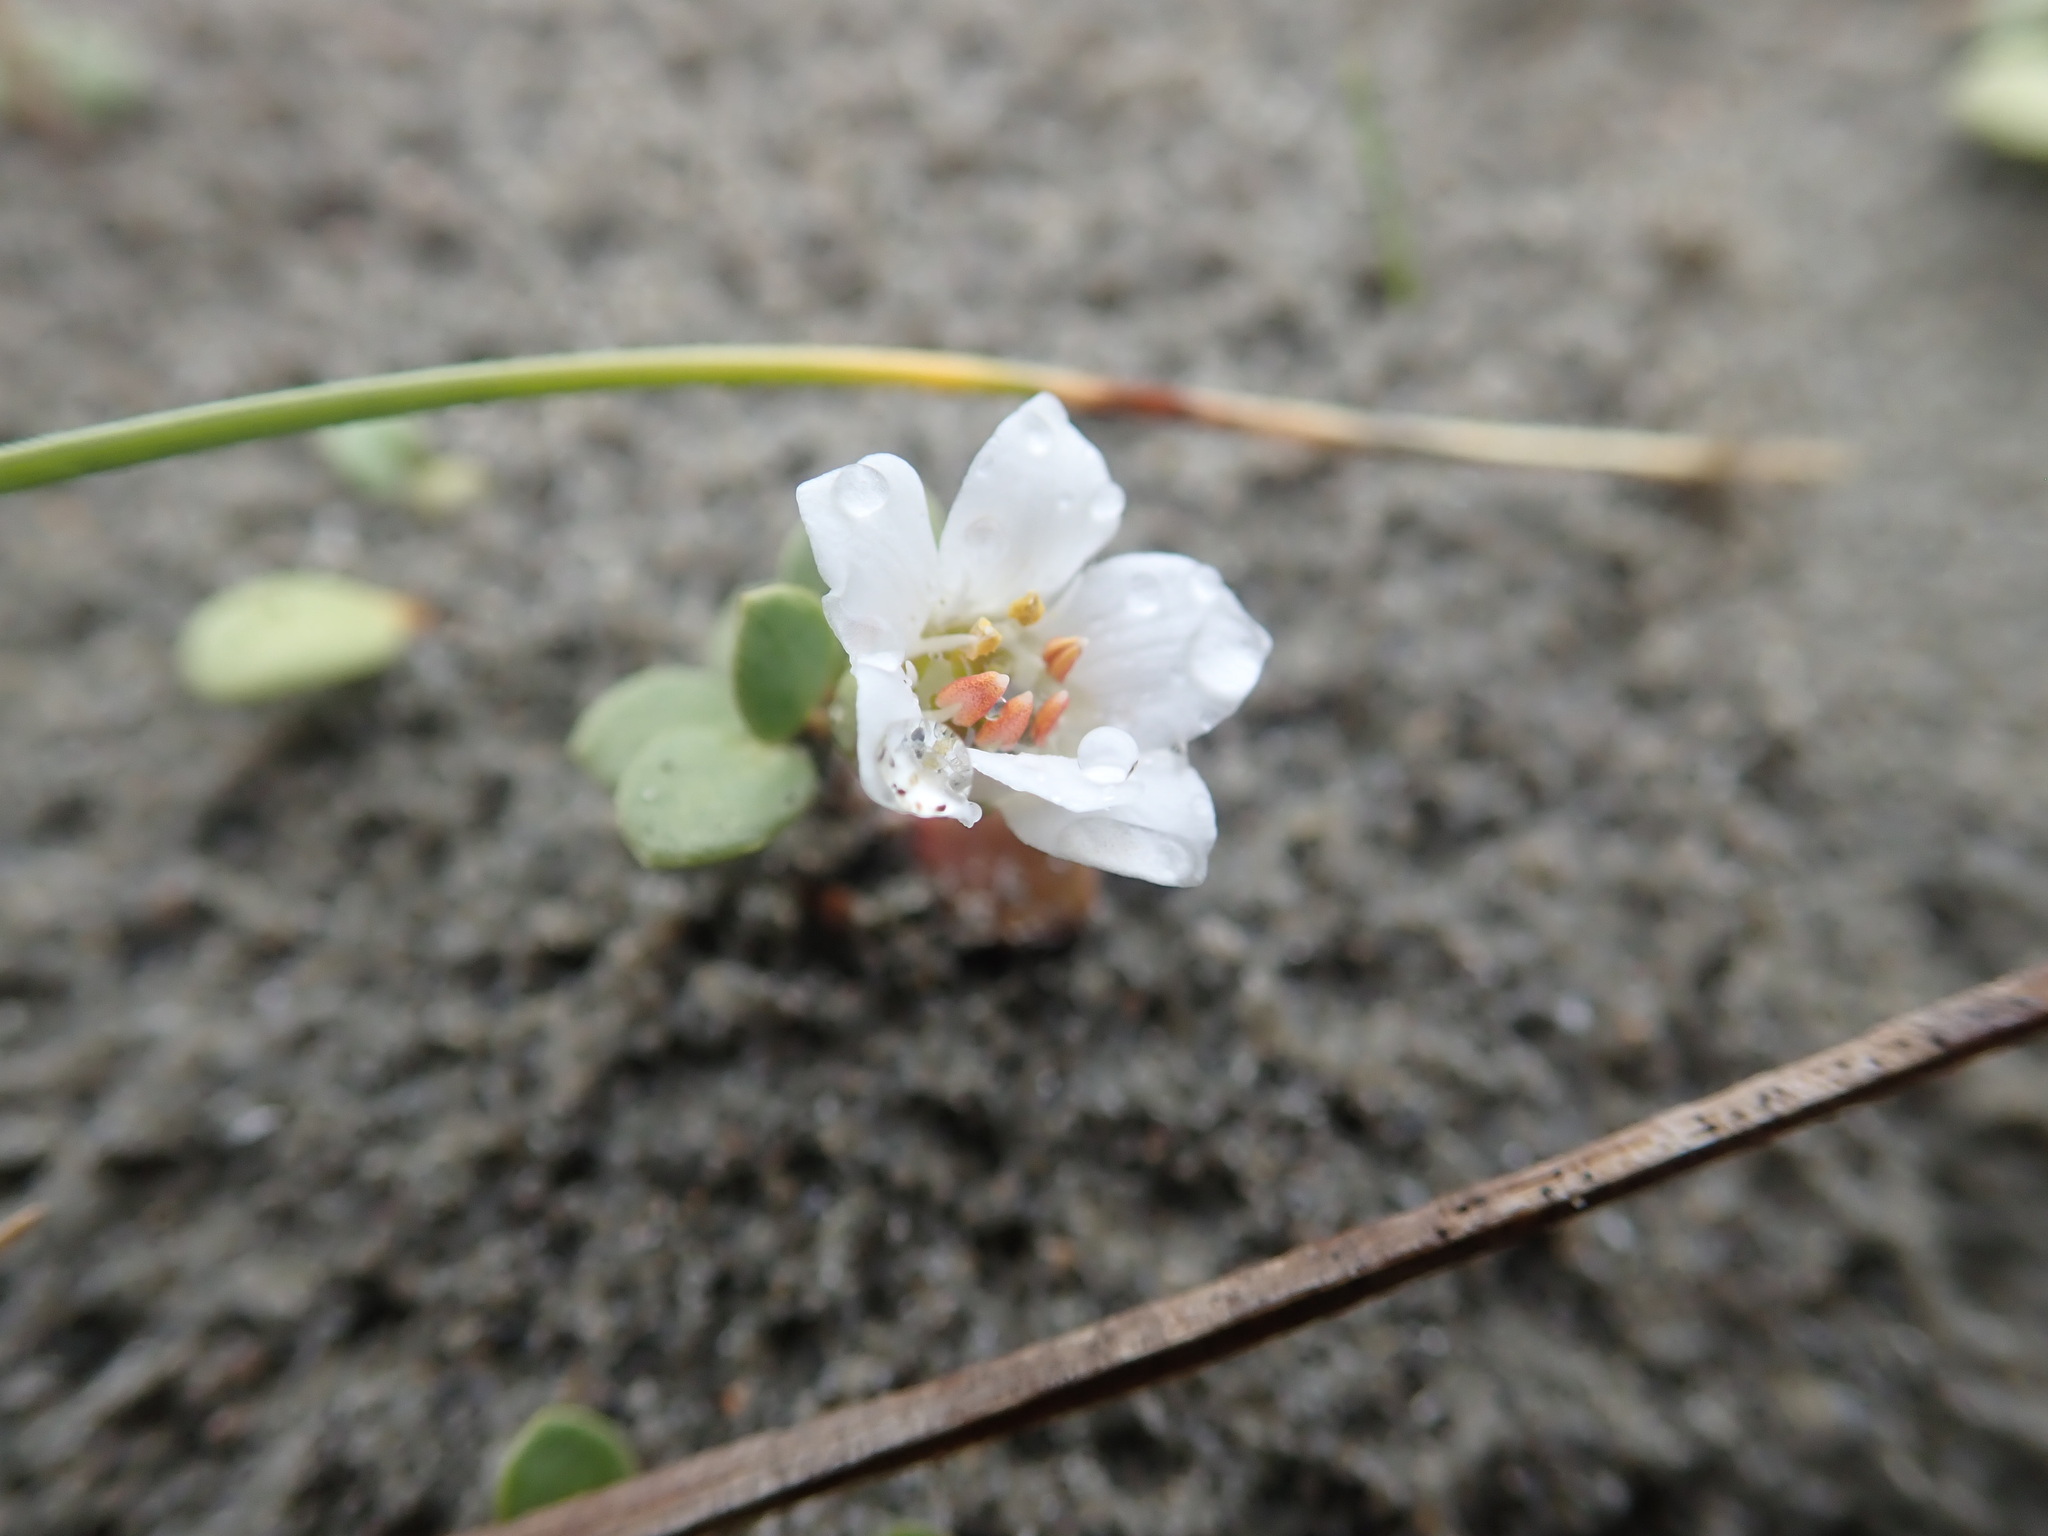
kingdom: Plantae
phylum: Tracheophyta
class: Magnoliopsida
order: Ericales
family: Primulaceae
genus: Samolus
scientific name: Samolus repens
